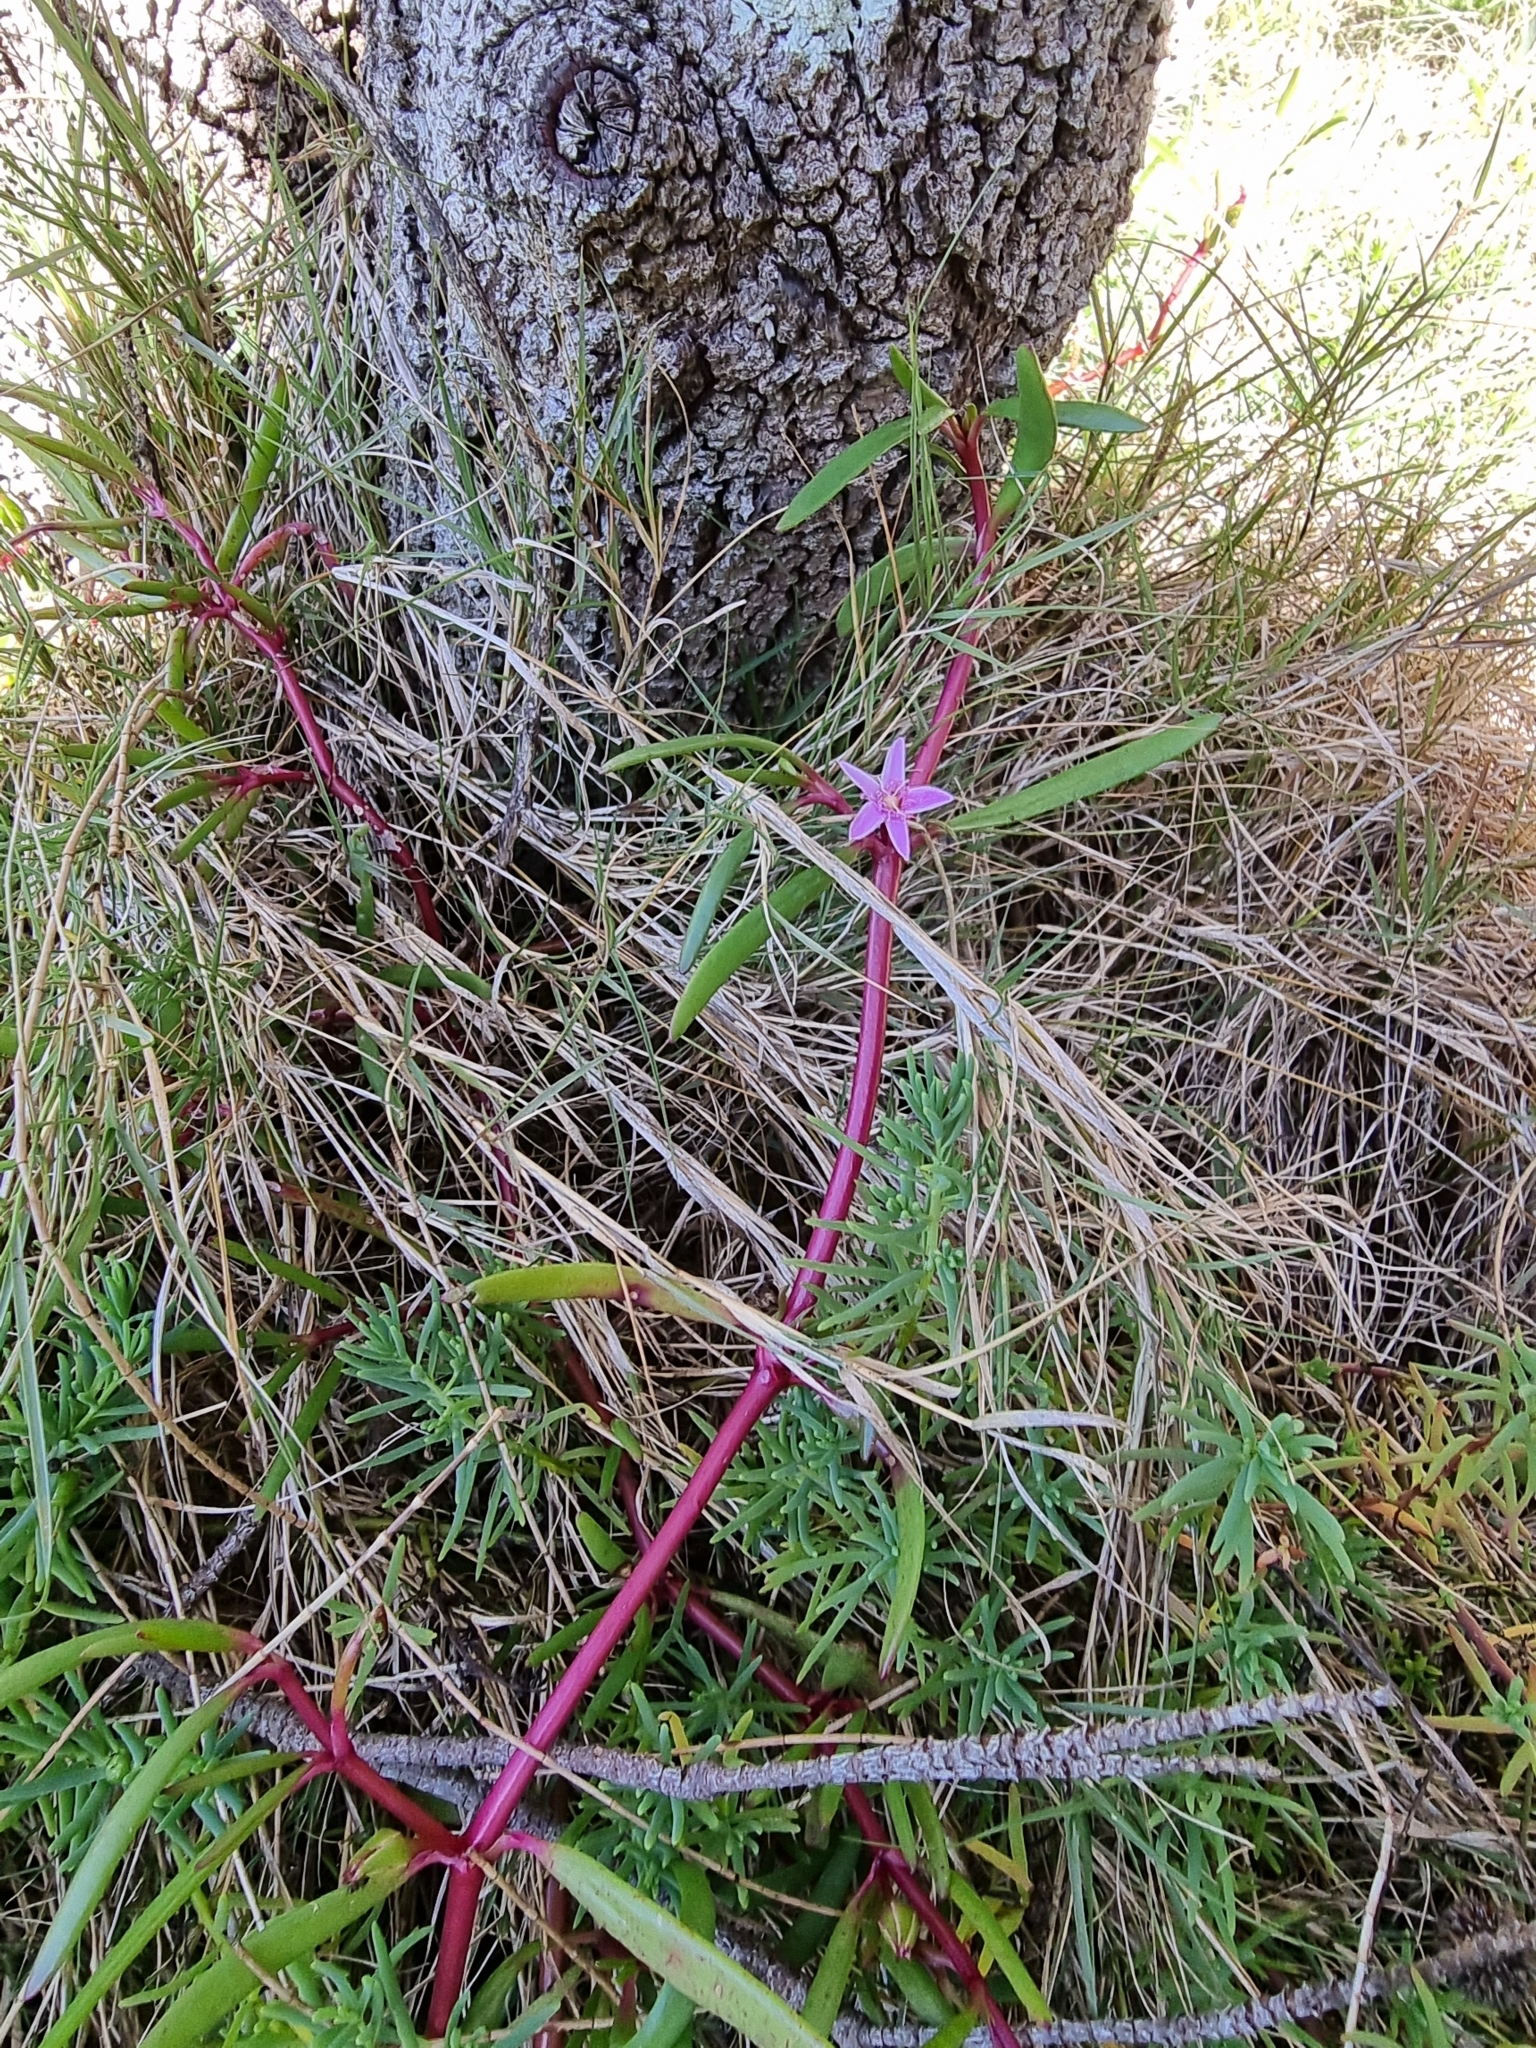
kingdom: Plantae
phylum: Tracheophyta
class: Magnoliopsida
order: Caryophyllales
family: Aizoaceae
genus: Sesuvium
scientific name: Sesuvium portulacastrum
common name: Sea-purslane
